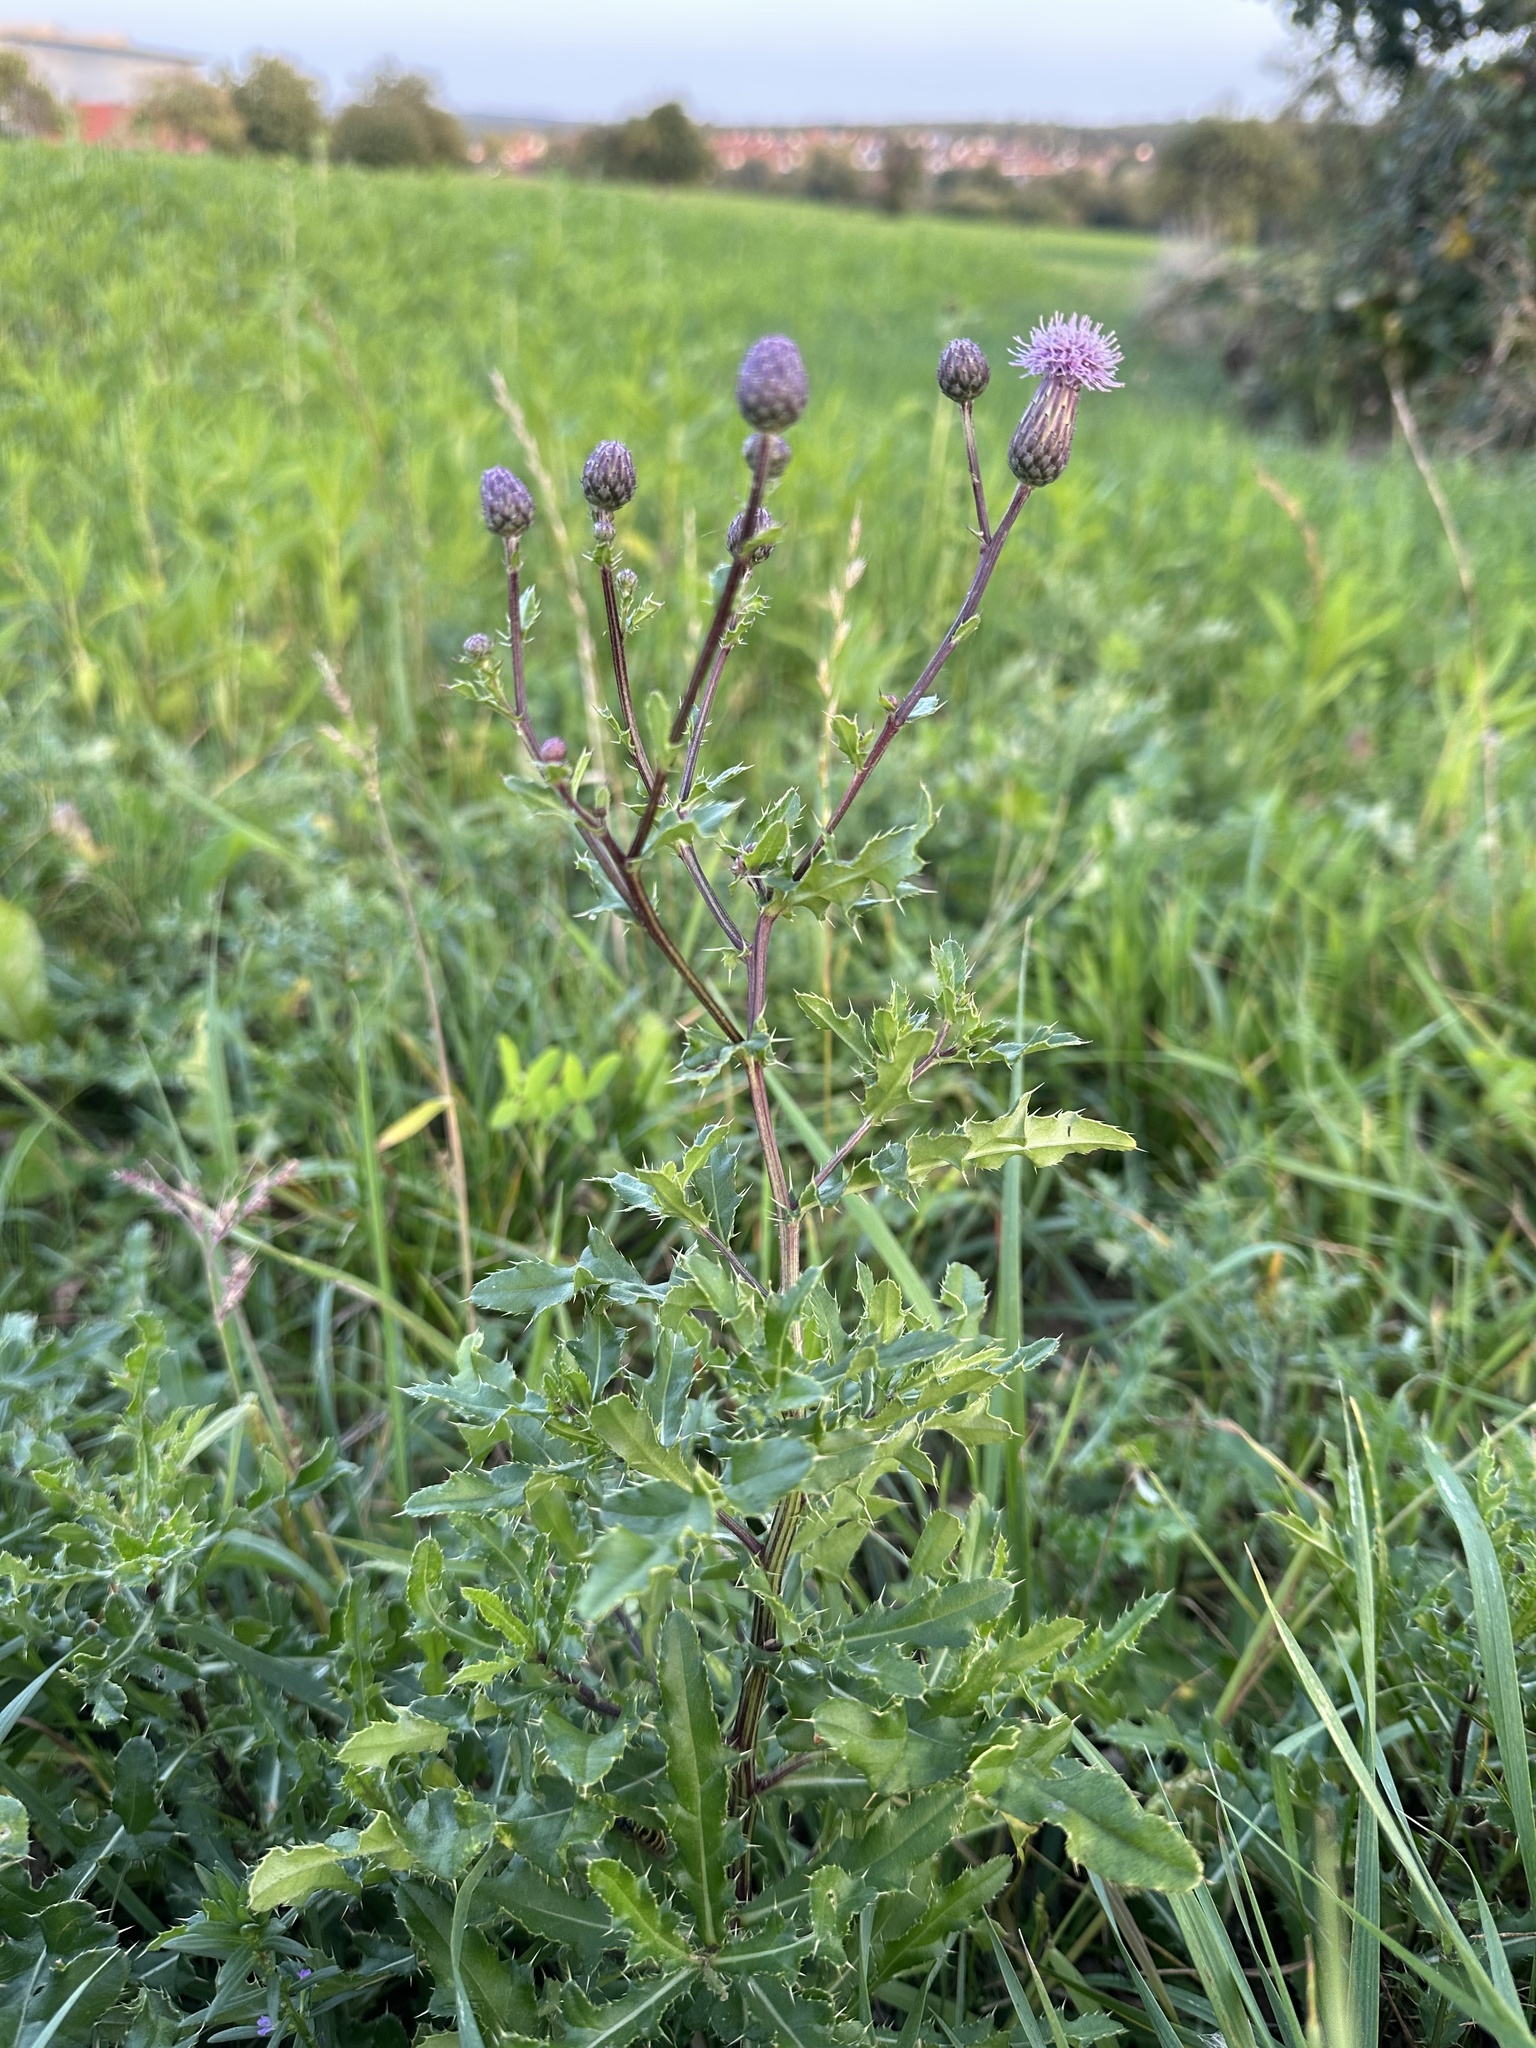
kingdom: Plantae
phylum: Tracheophyta
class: Magnoliopsida
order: Asterales
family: Asteraceae
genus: Cirsium
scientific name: Cirsium arvense
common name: Creeping thistle
